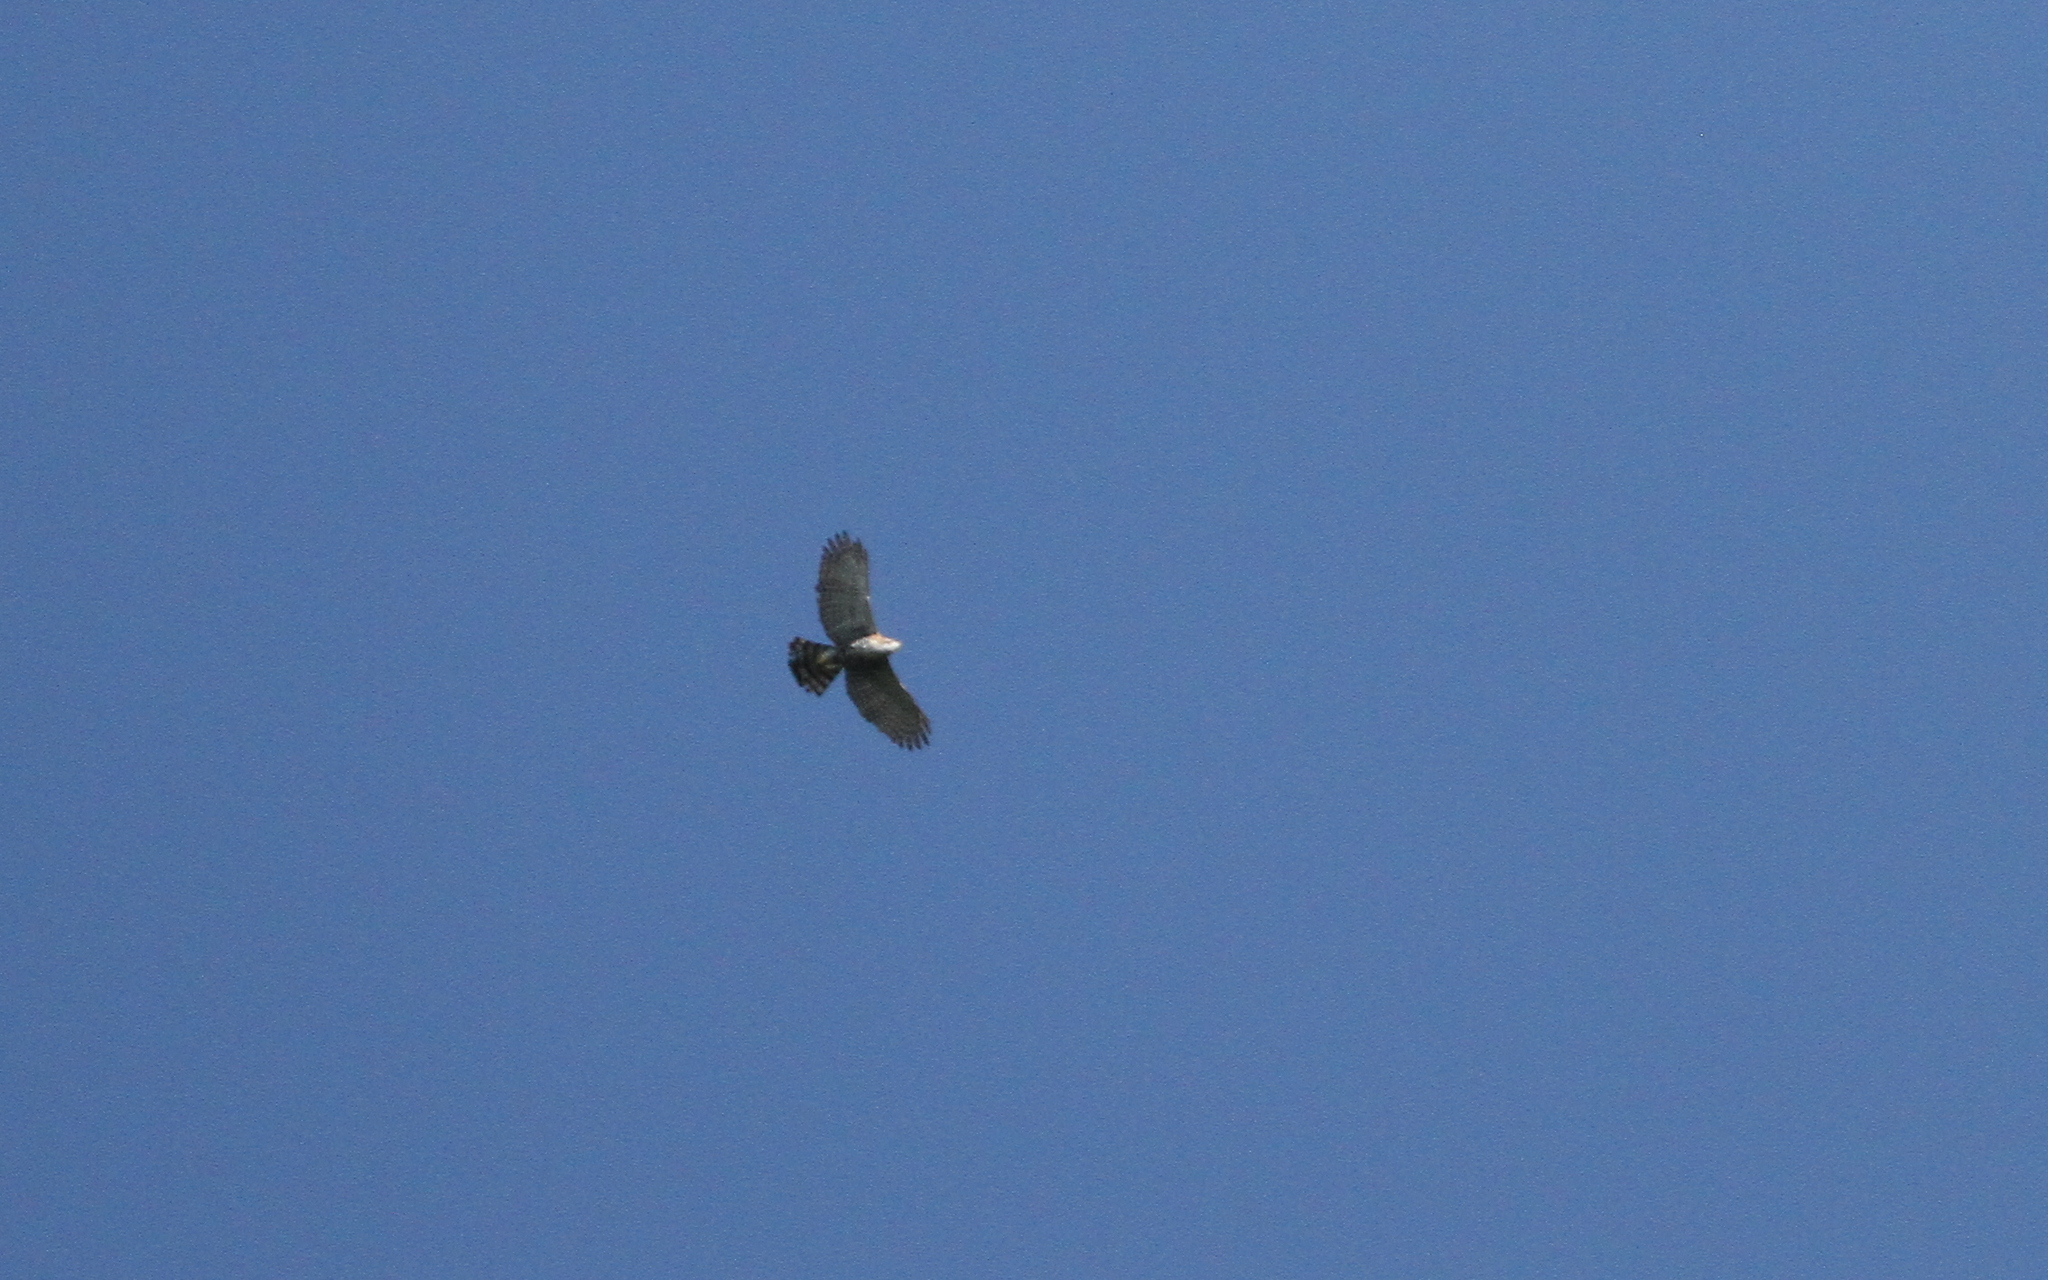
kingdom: Animalia
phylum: Chordata
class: Aves
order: Accipitriformes
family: Accipitridae
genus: Spizaetus
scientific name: Spizaetus ornatus
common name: Ornate hawk-eagle
